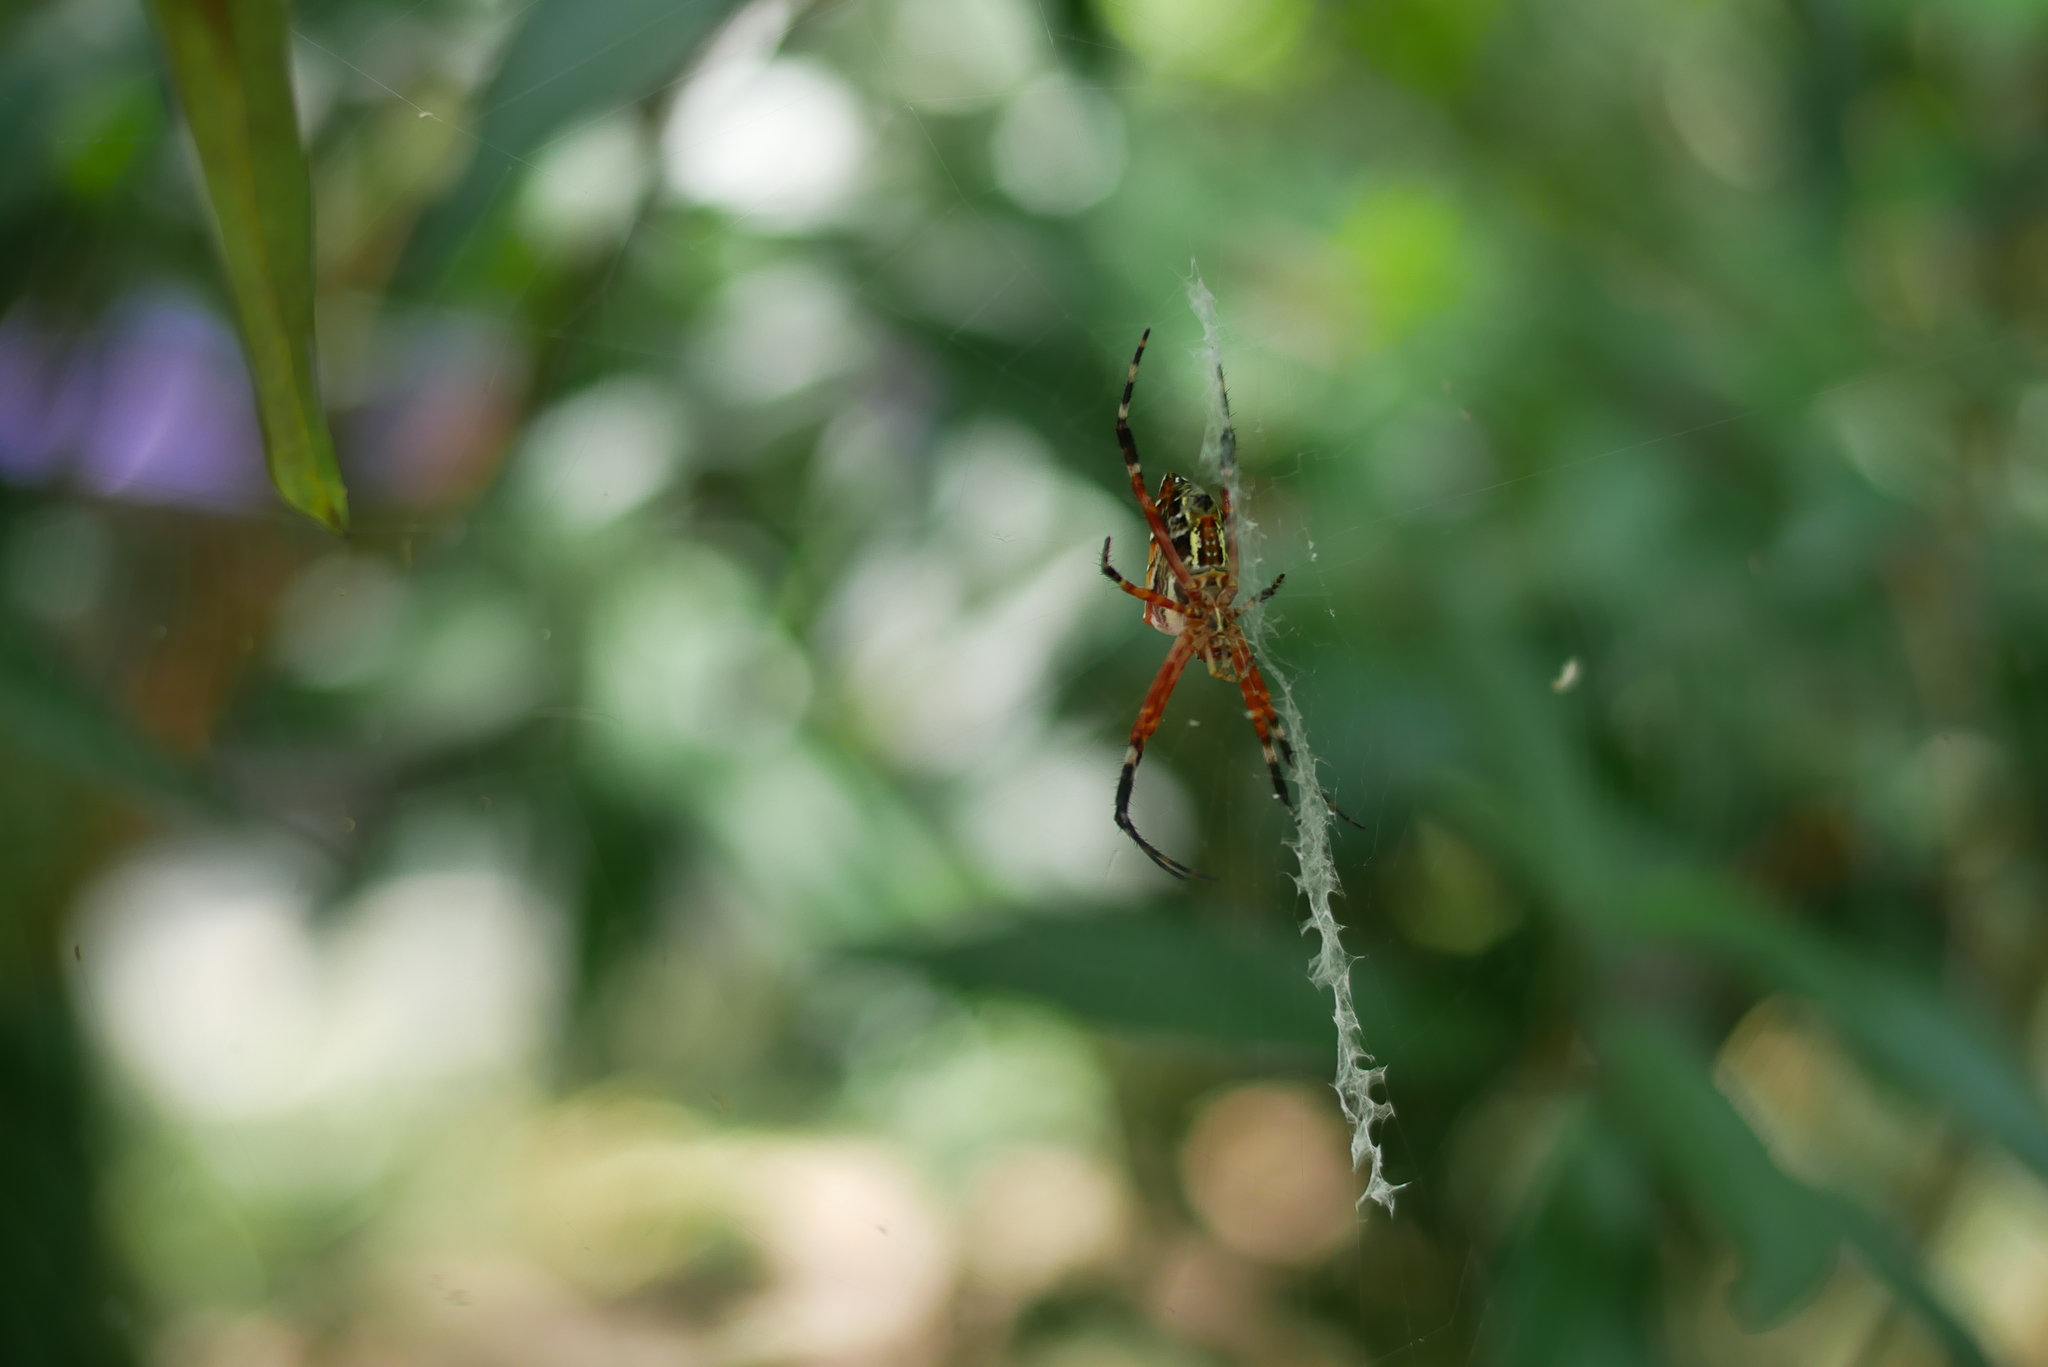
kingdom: Animalia
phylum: Arthropoda
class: Arachnida
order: Araneae
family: Araneidae
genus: Argiope
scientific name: Argiope ocula
